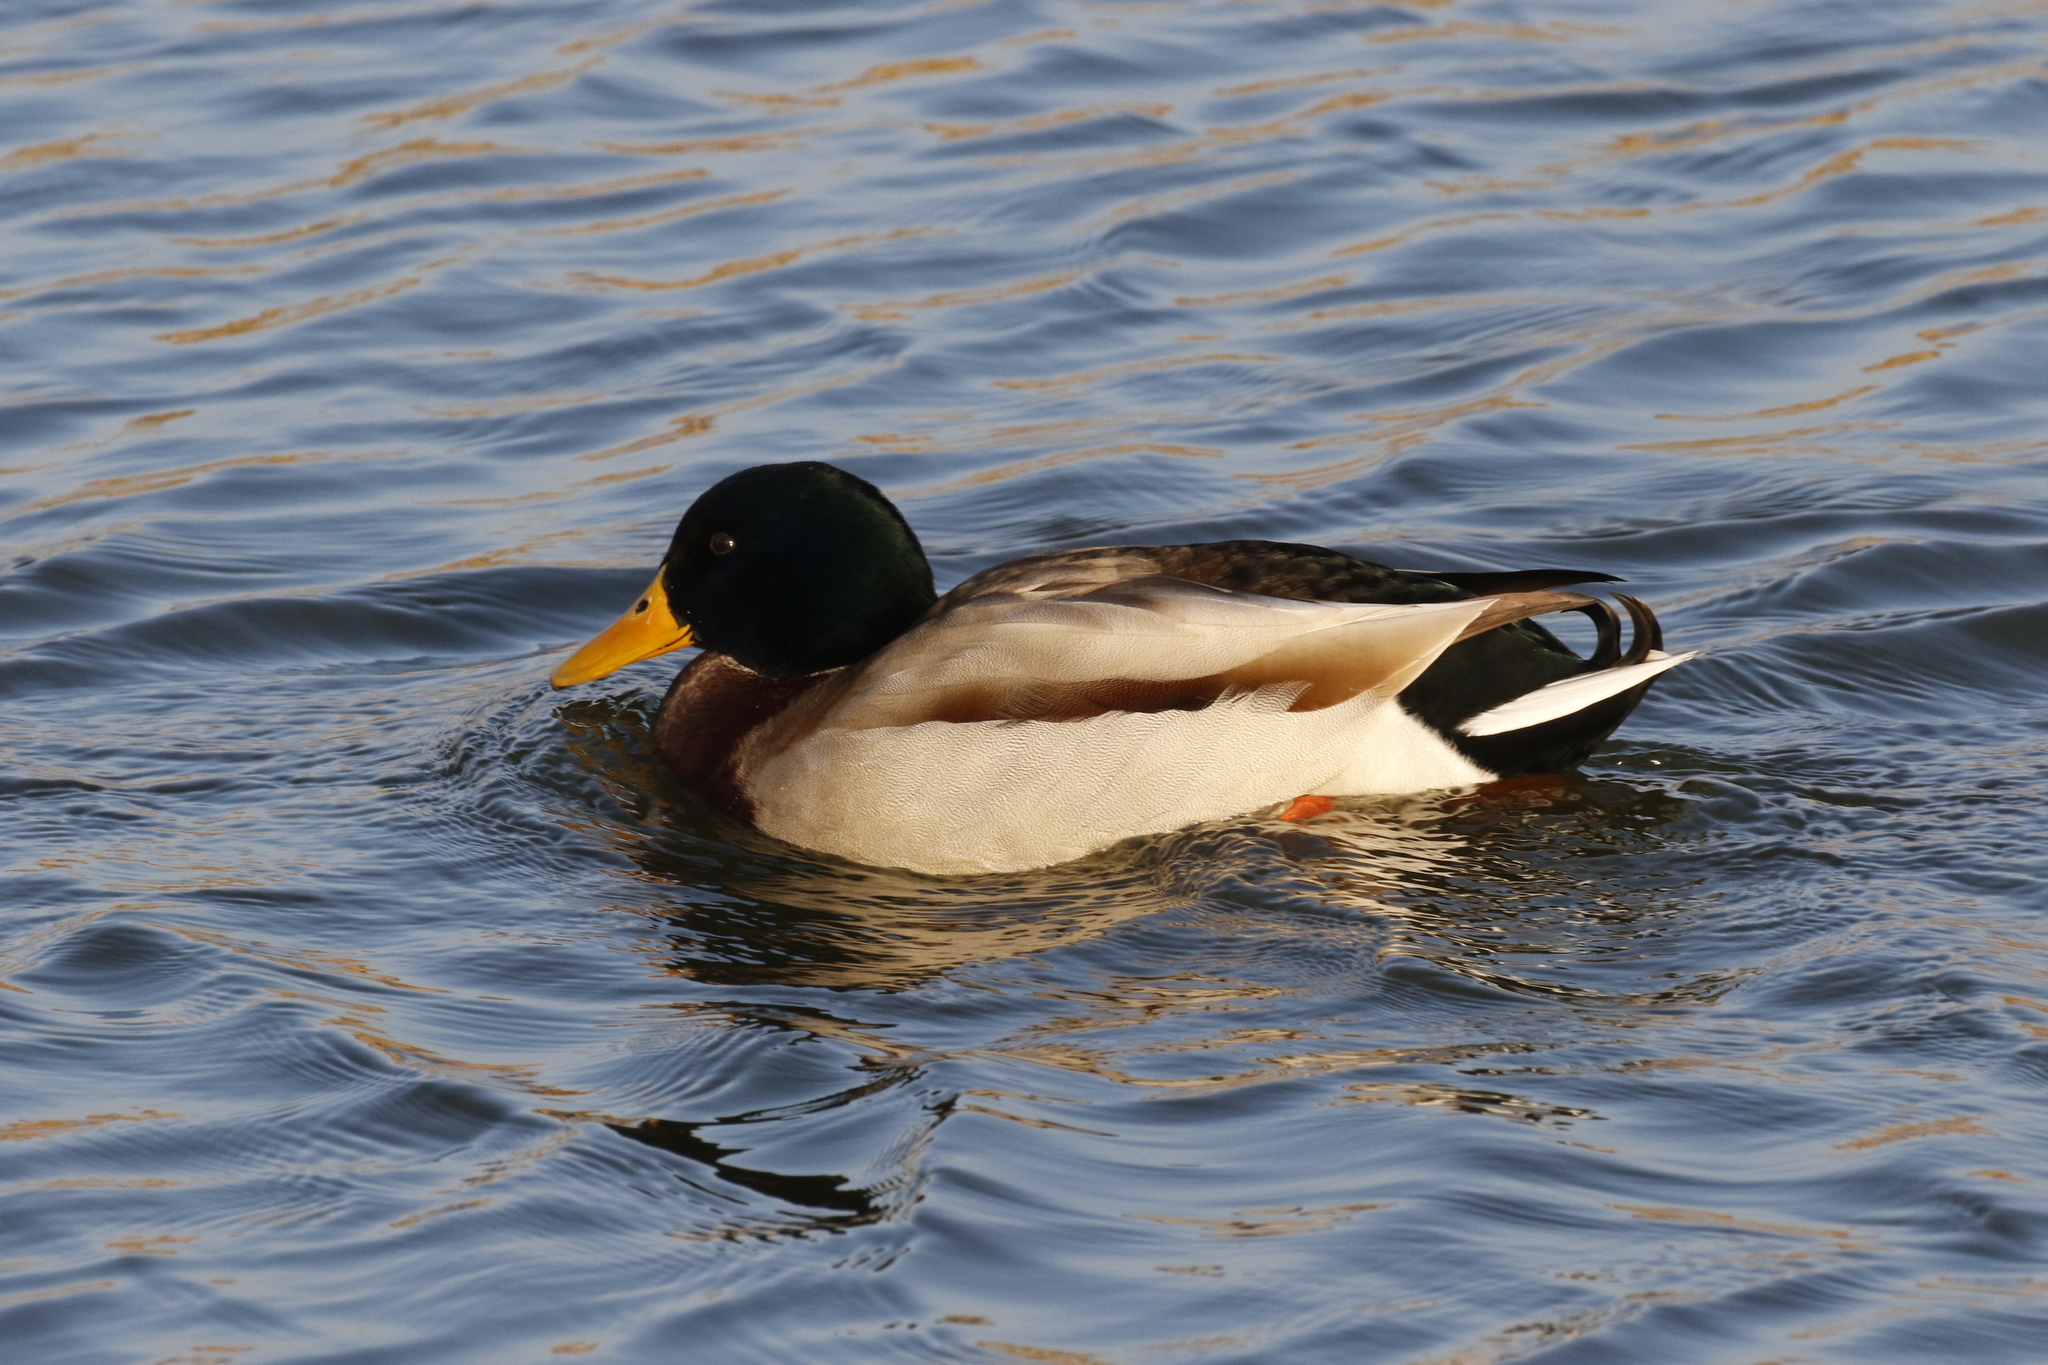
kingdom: Animalia
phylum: Chordata
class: Aves
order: Anseriformes
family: Anatidae
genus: Anas
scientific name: Anas platyrhynchos
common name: Mallard
